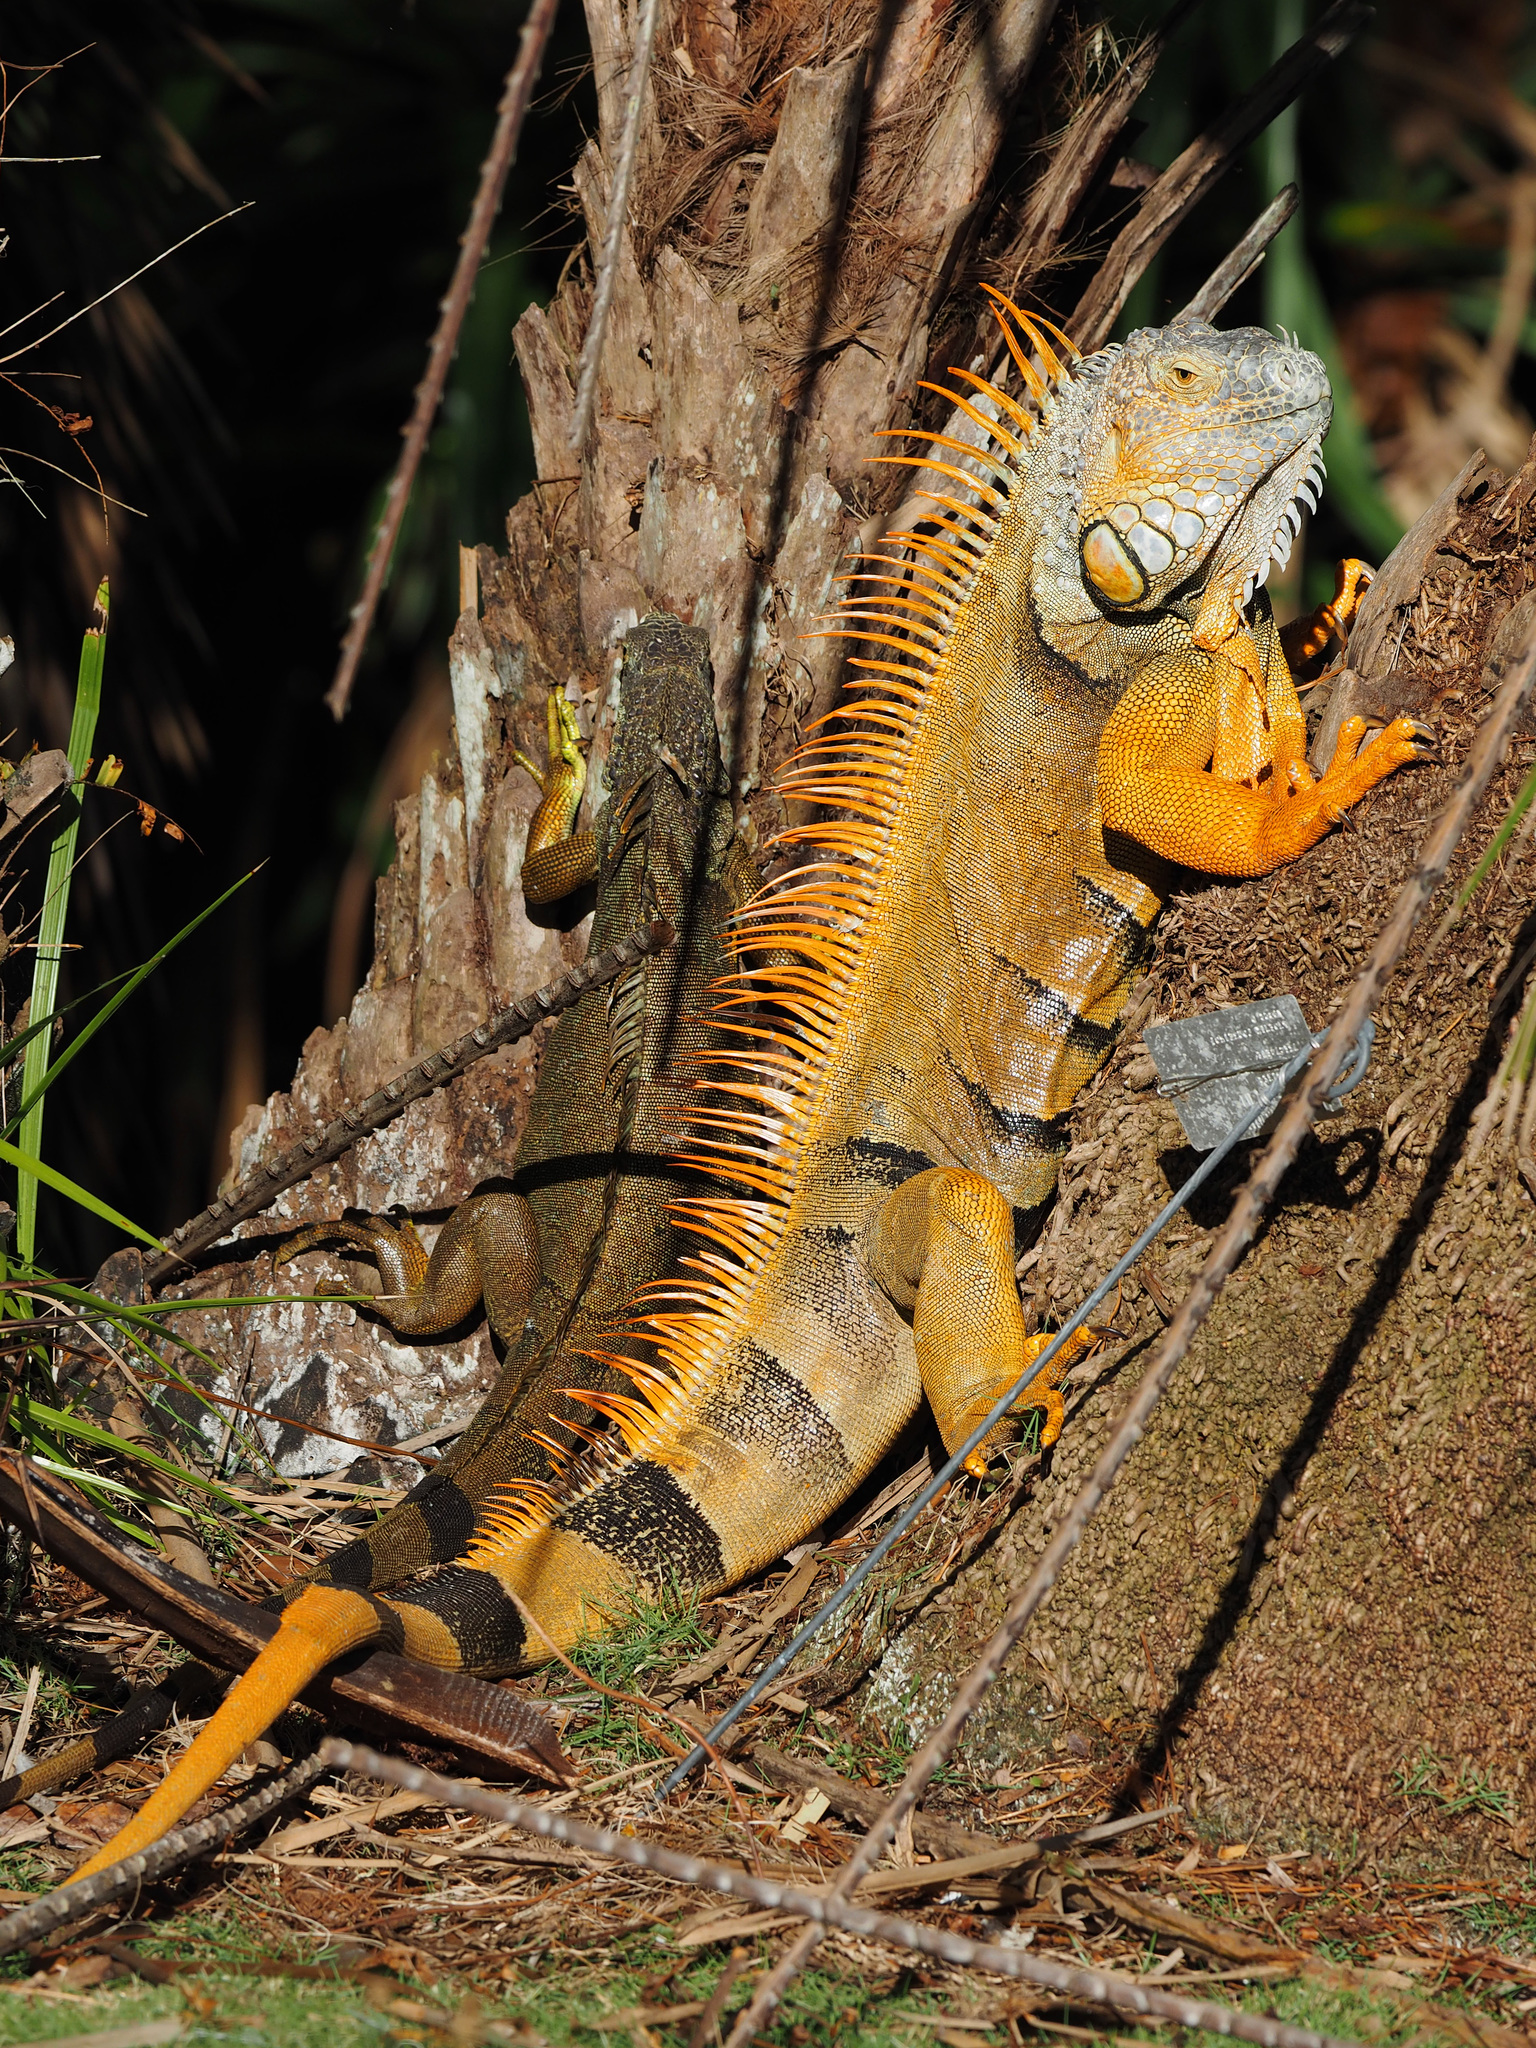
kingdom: Animalia
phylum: Chordata
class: Squamata
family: Iguanidae
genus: Iguana
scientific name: Iguana iguana
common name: Green iguana
